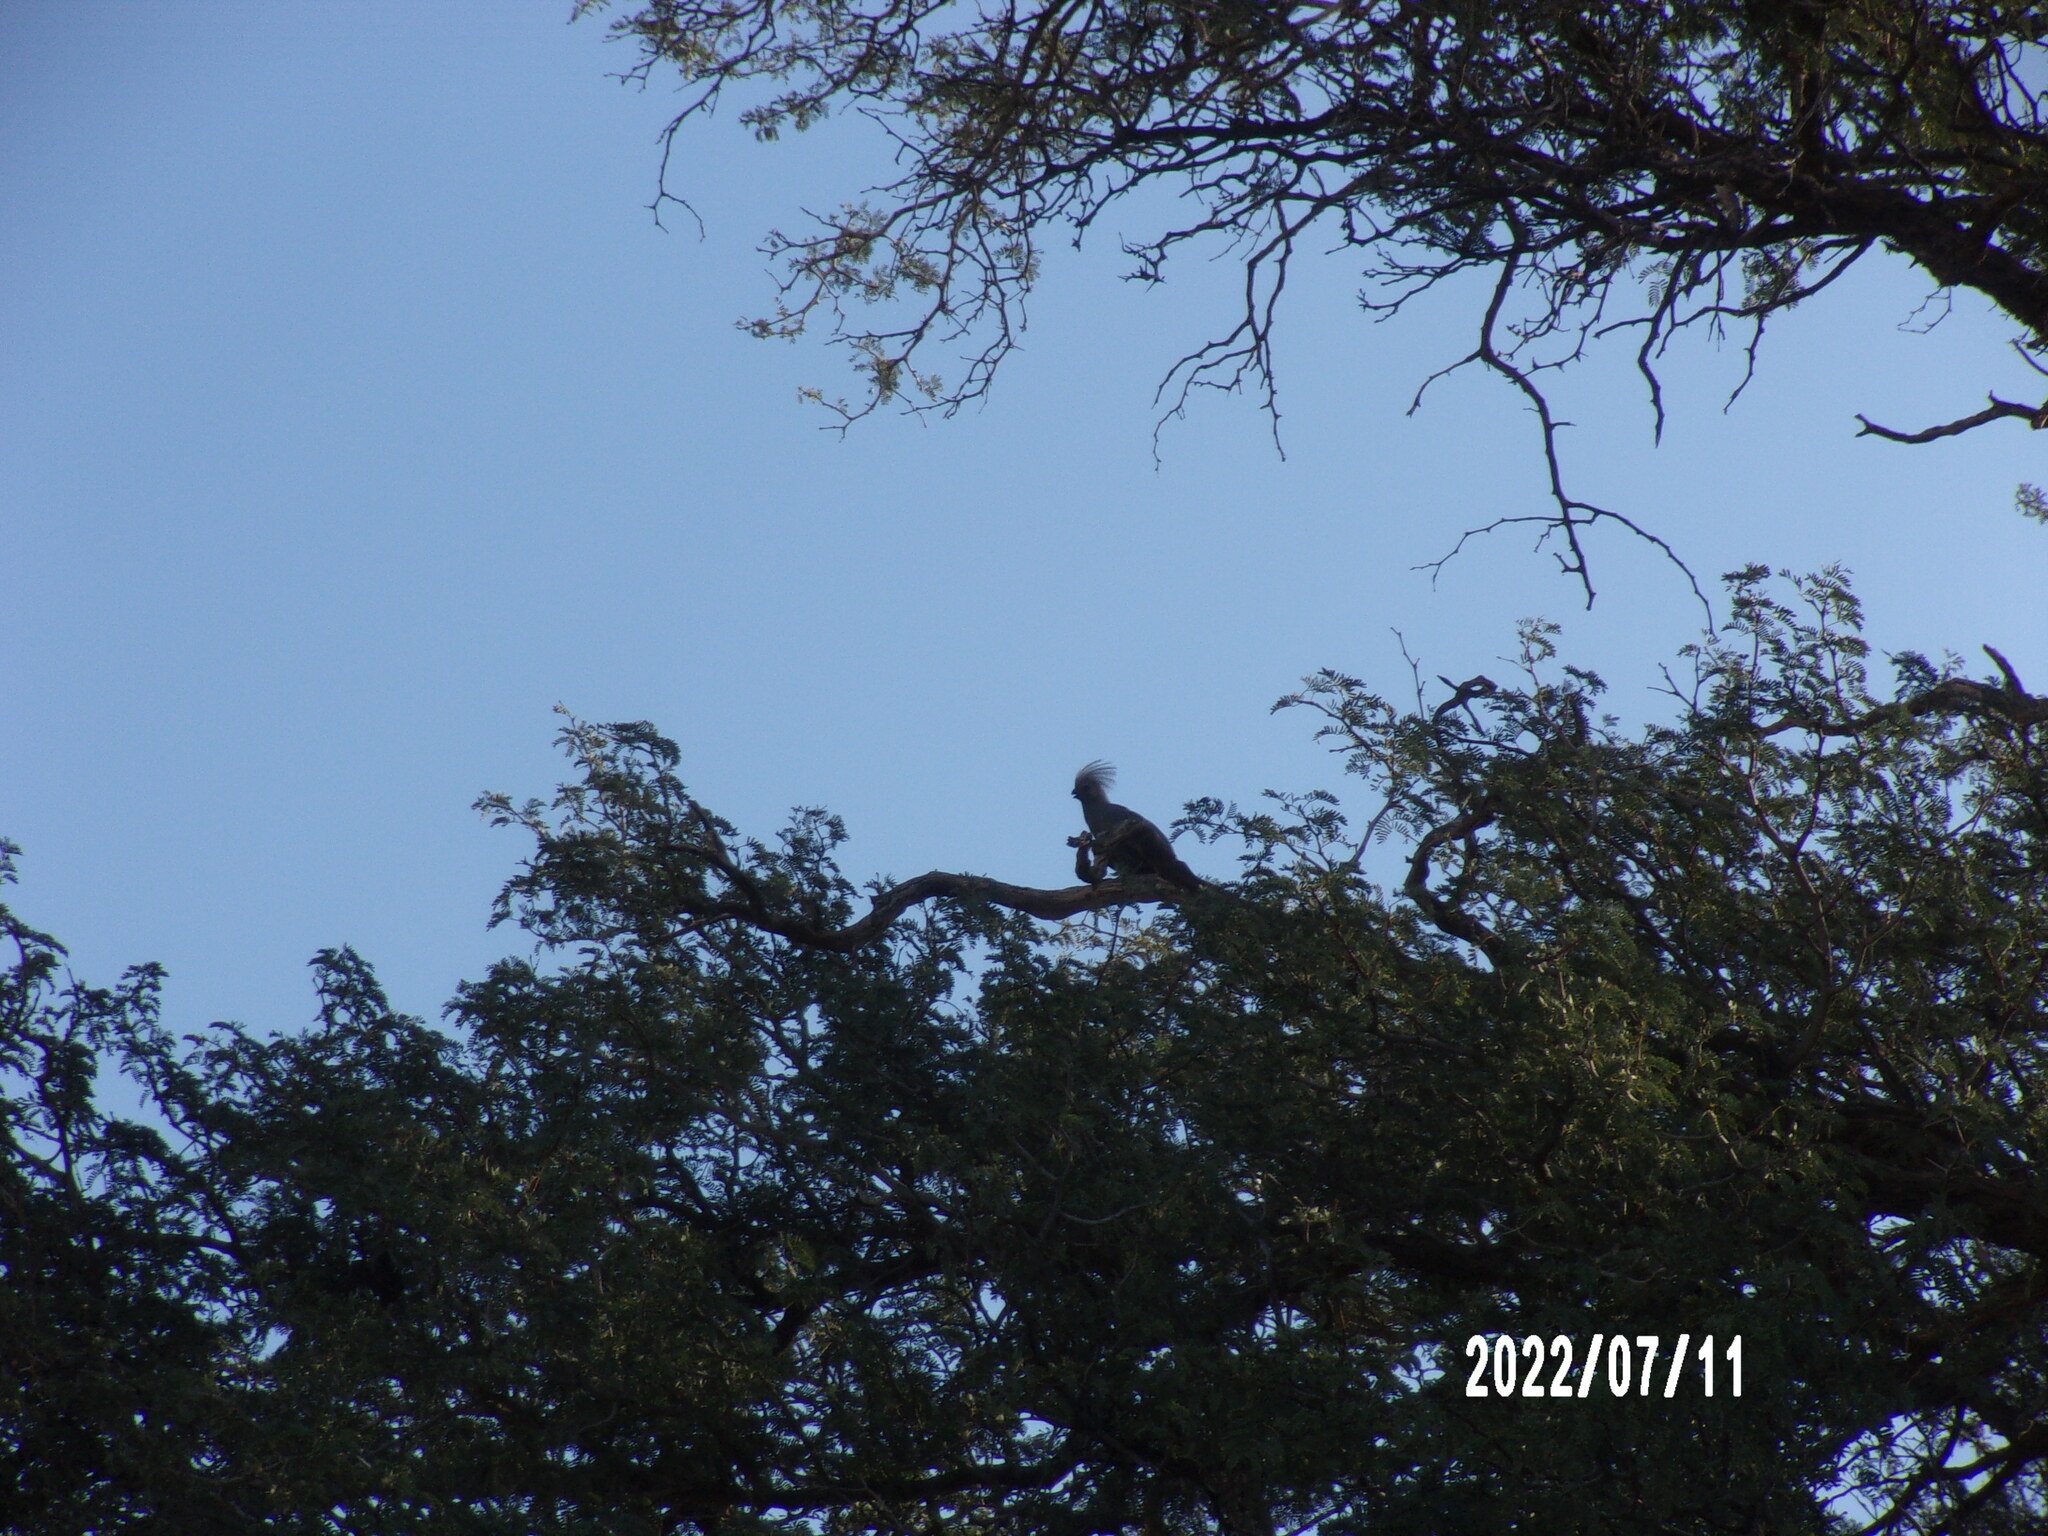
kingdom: Animalia
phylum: Chordata
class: Aves
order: Musophagiformes
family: Musophagidae
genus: Corythaixoides
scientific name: Corythaixoides concolor
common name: Grey go-away-bird
